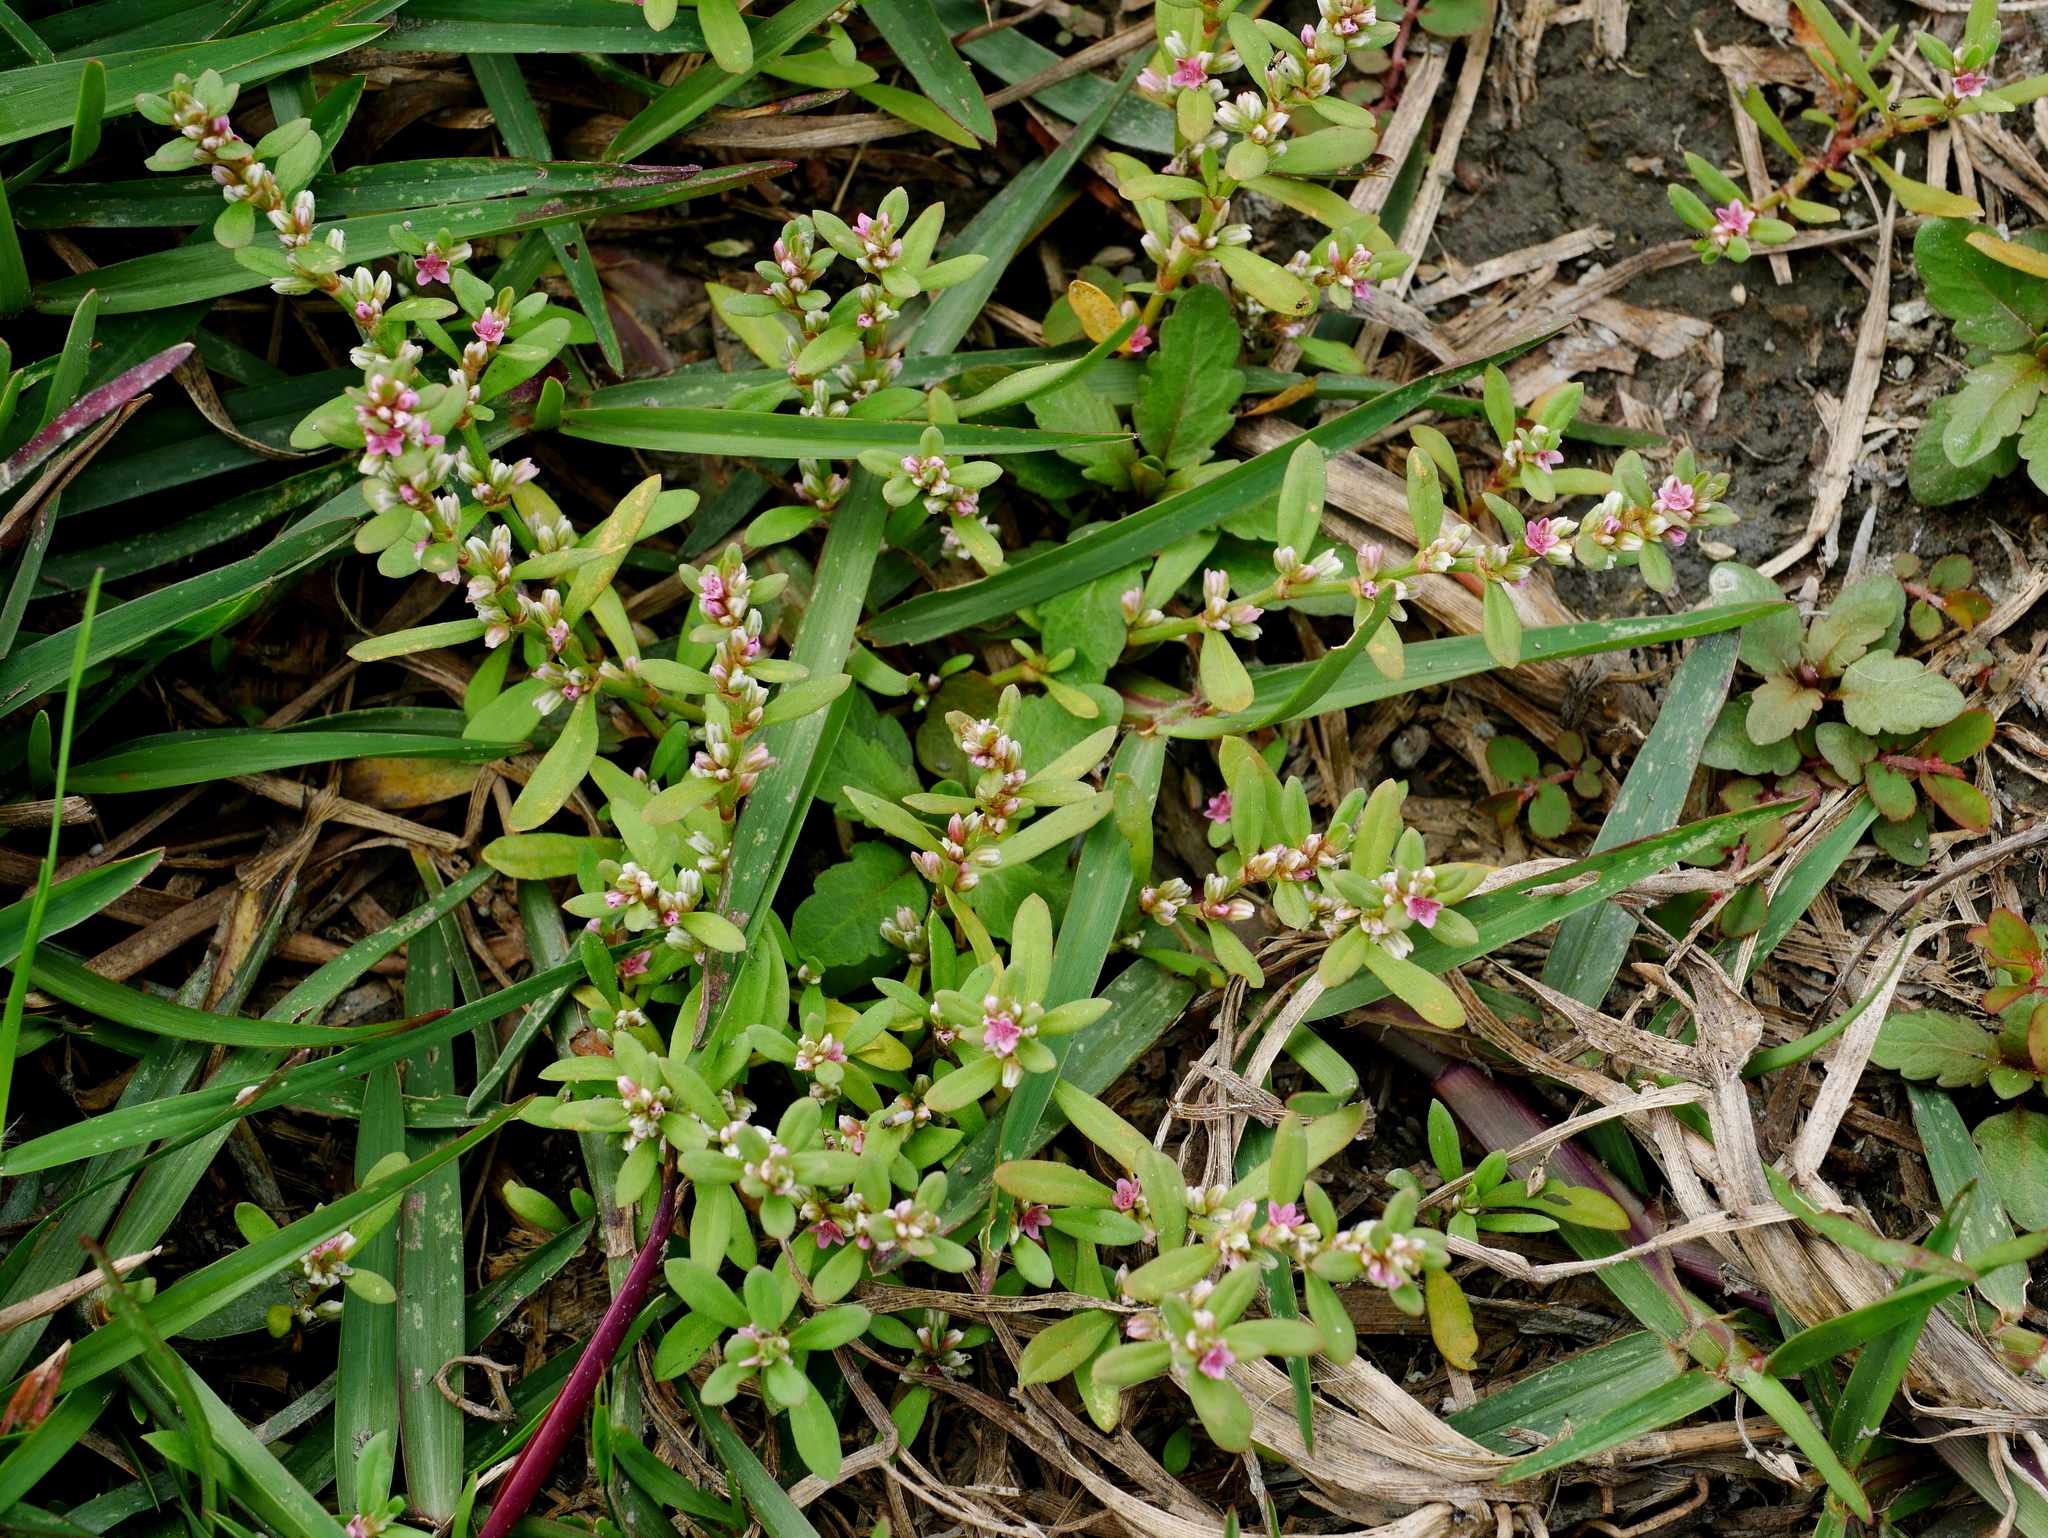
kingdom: Plantae
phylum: Tracheophyta
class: Magnoliopsida
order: Caryophyllales
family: Polygonaceae
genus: Polygonum
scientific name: Polygonum plebeium
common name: Common knotweed
